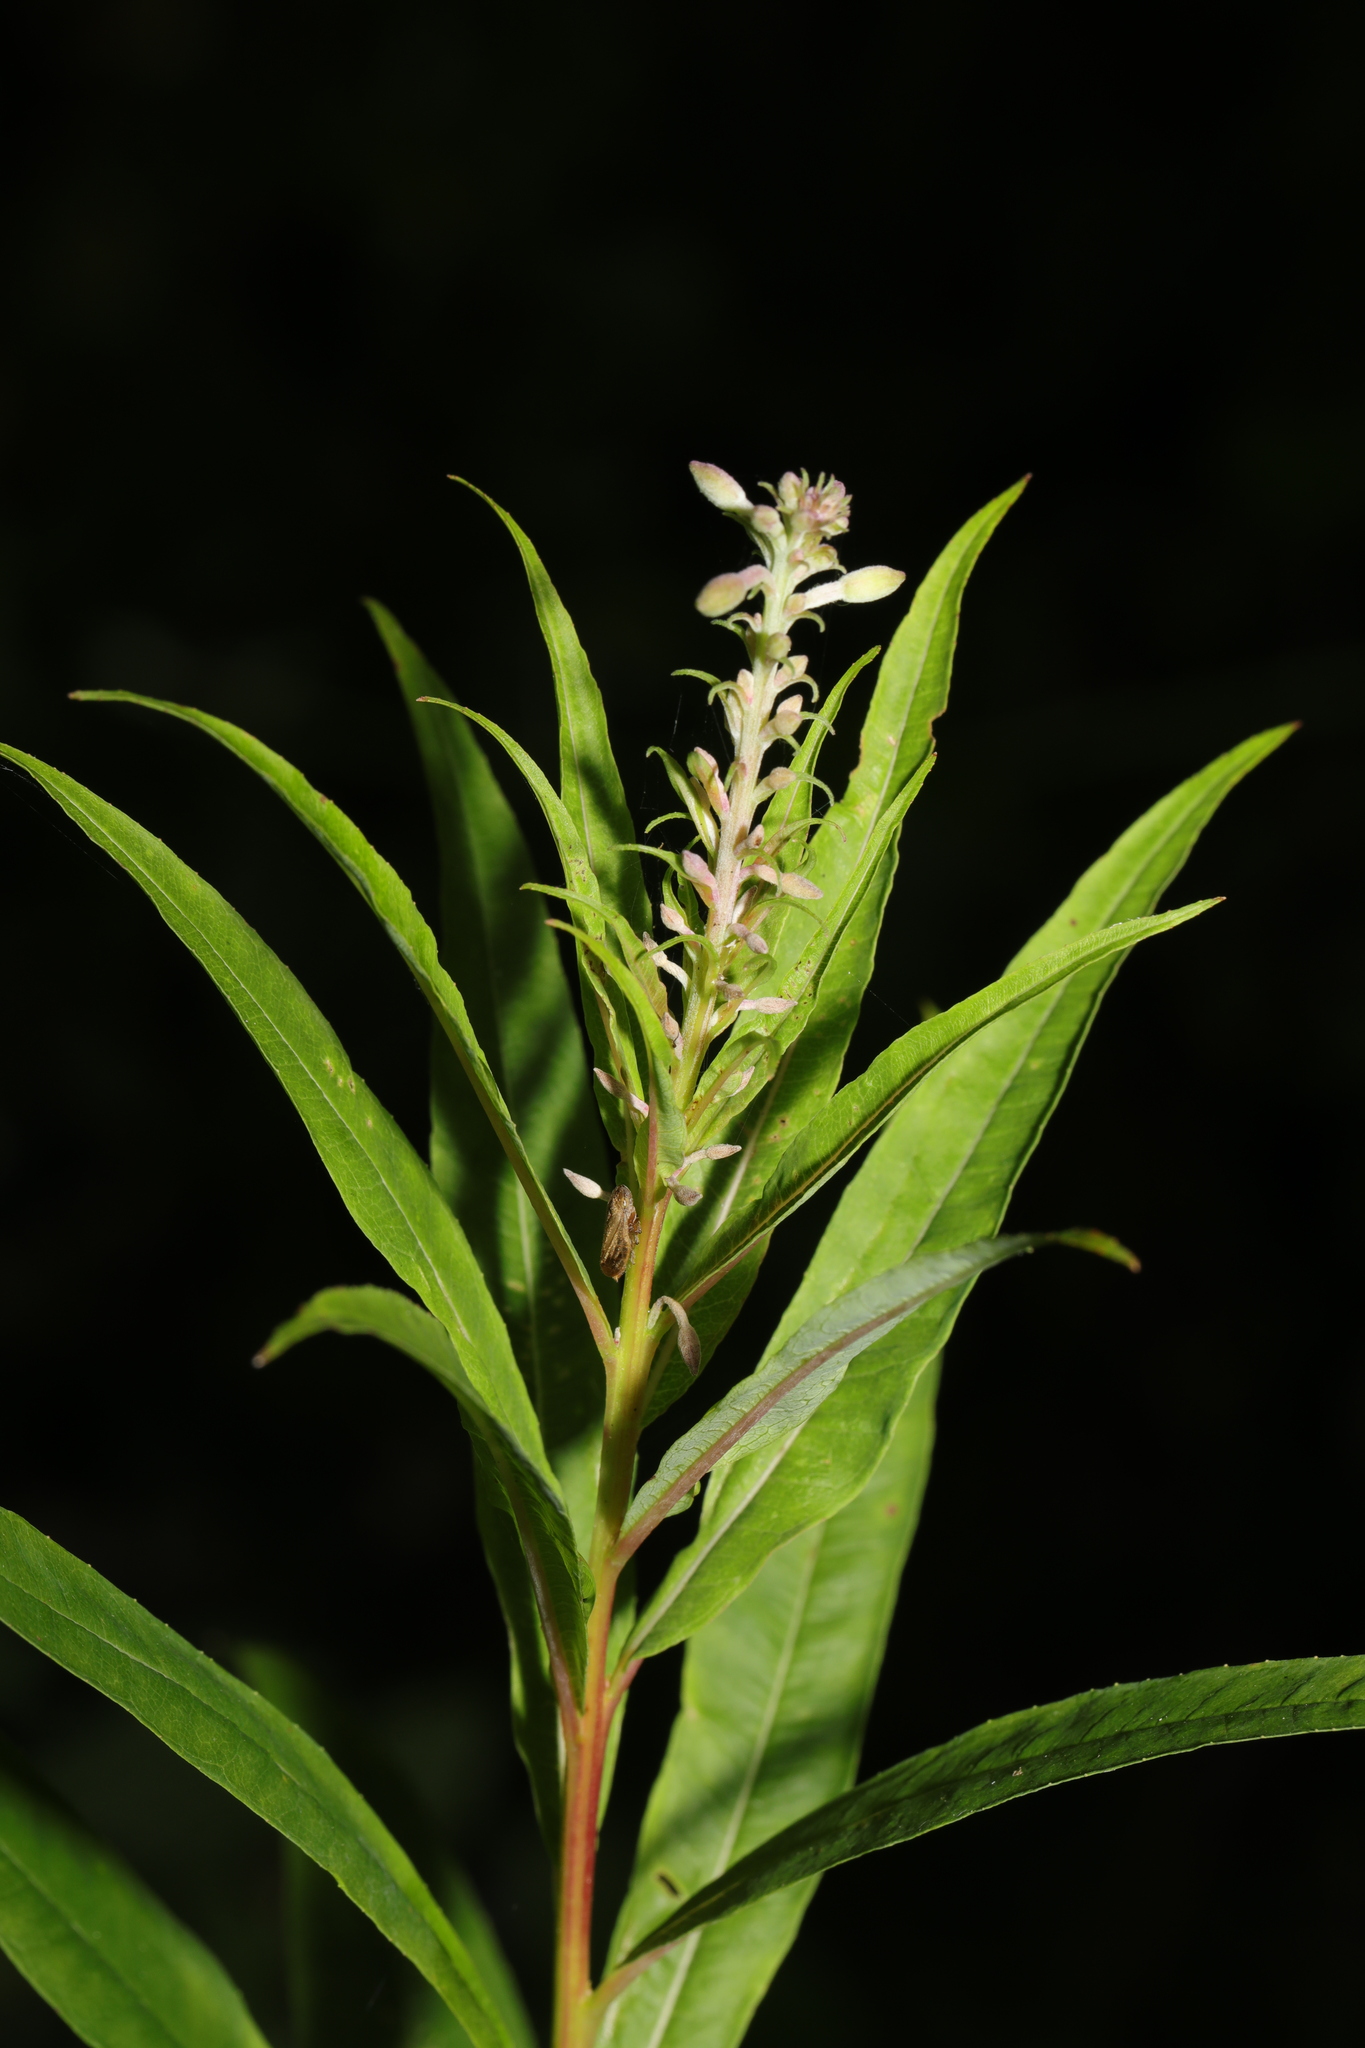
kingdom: Plantae
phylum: Tracheophyta
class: Magnoliopsida
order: Myrtales
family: Onagraceae
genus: Chamaenerion
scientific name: Chamaenerion angustifolium
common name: Fireweed
